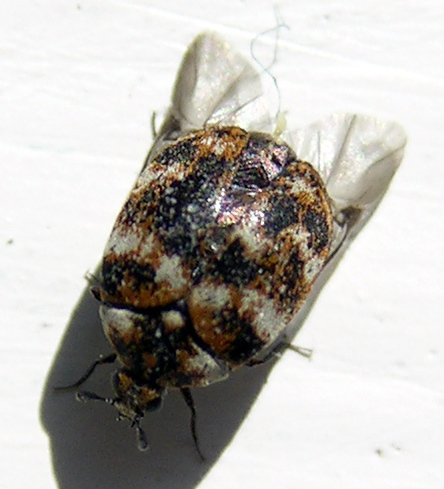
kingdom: Animalia
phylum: Arthropoda
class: Insecta
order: Coleoptera
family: Dermestidae
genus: Anthrenus
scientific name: Anthrenus verbasci
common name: Varied carpet beetle
